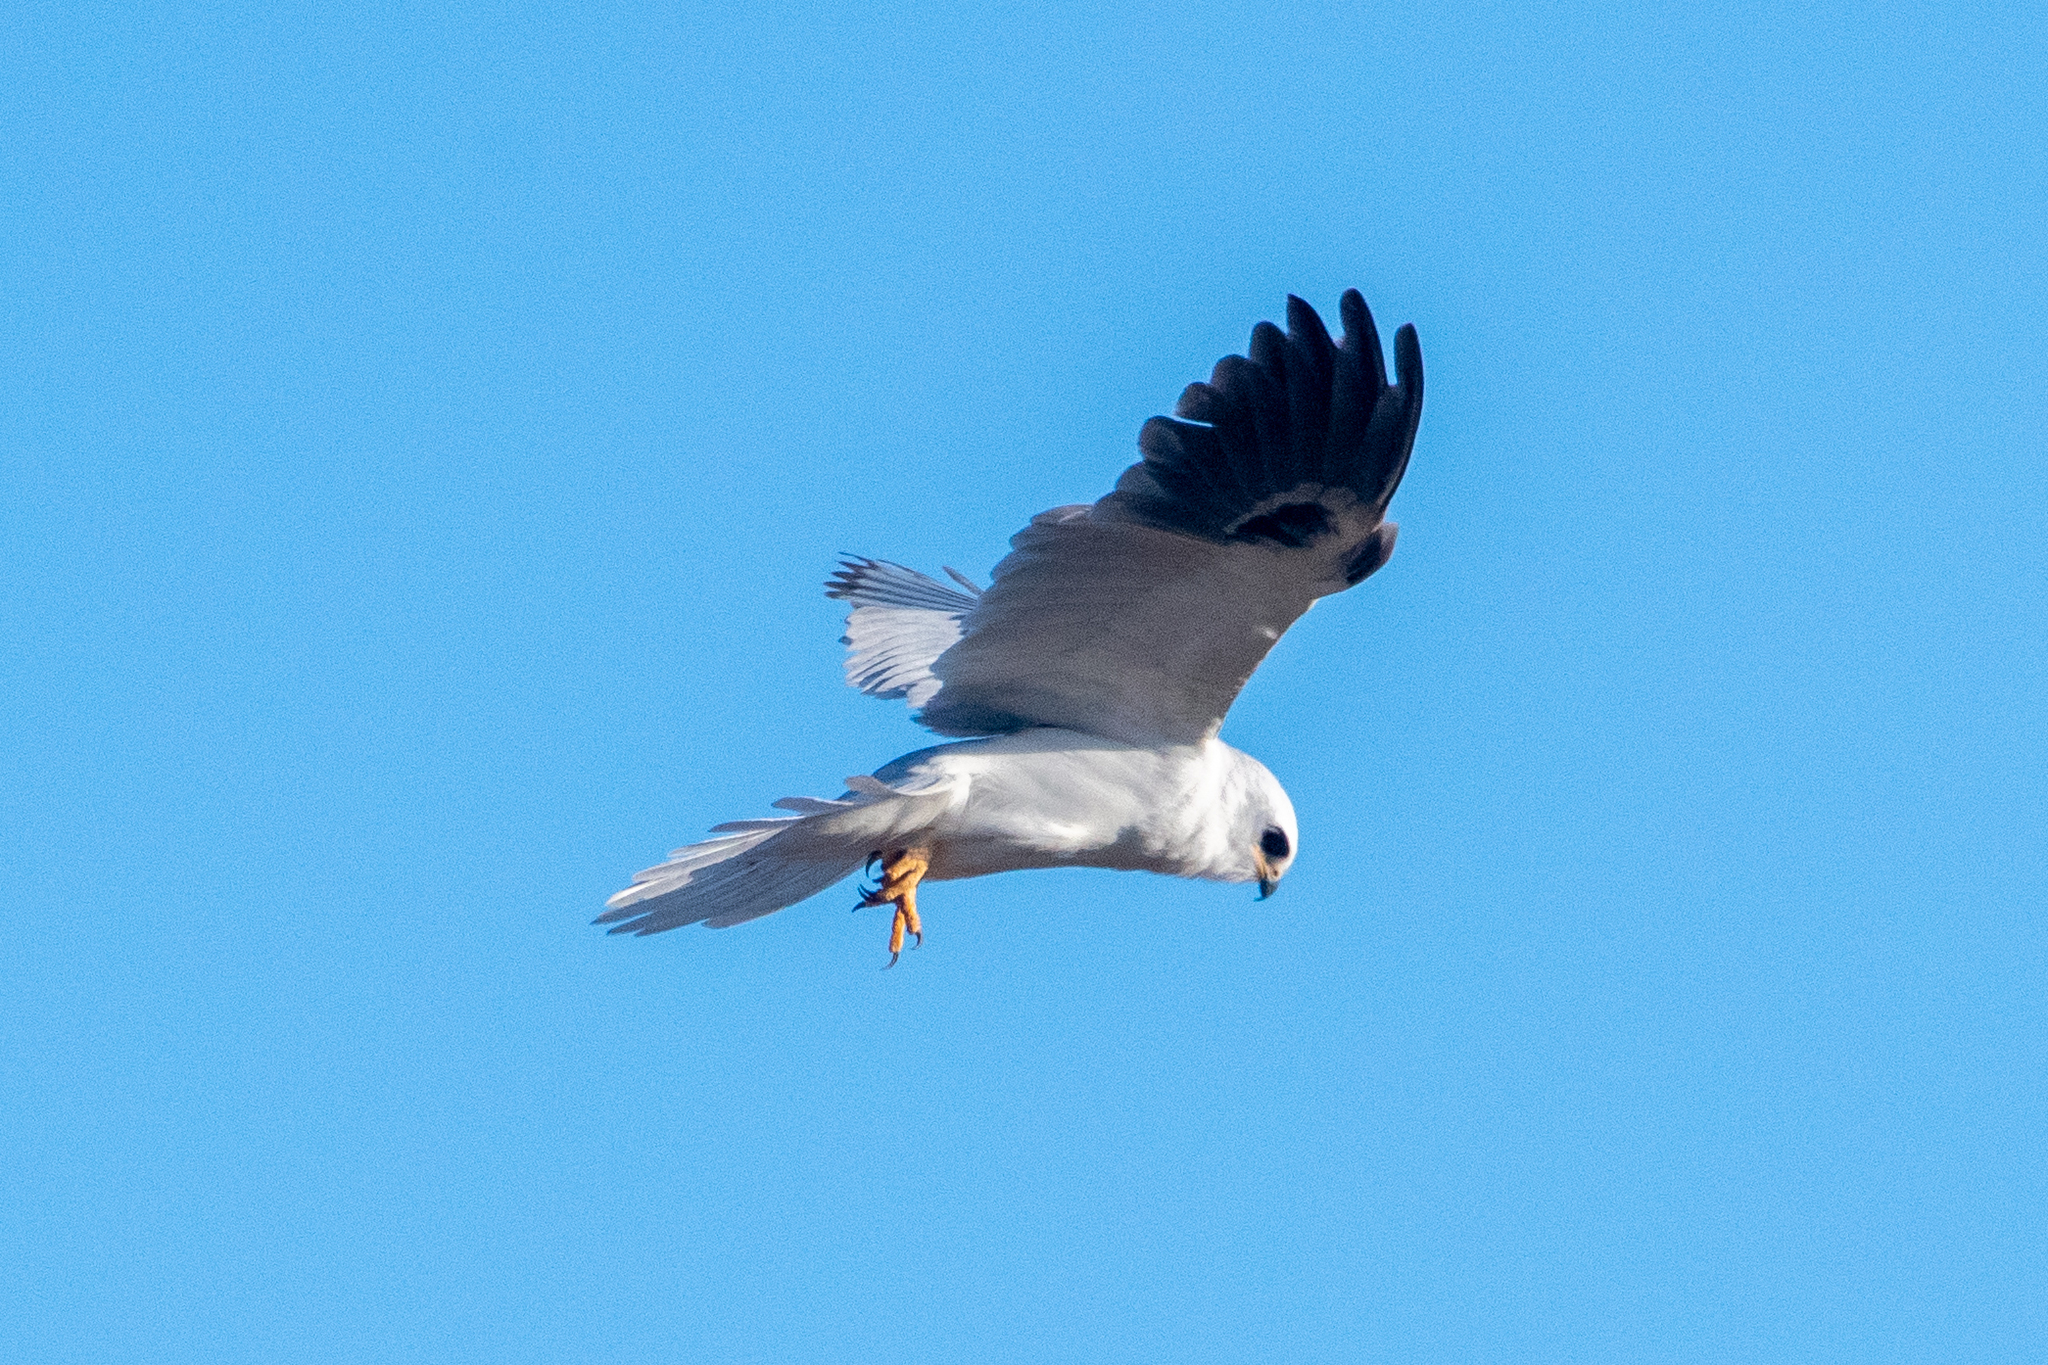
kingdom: Animalia
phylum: Chordata
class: Aves
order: Accipitriformes
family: Accipitridae
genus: Elanus
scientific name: Elanus leucurus
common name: White-tailed kite
